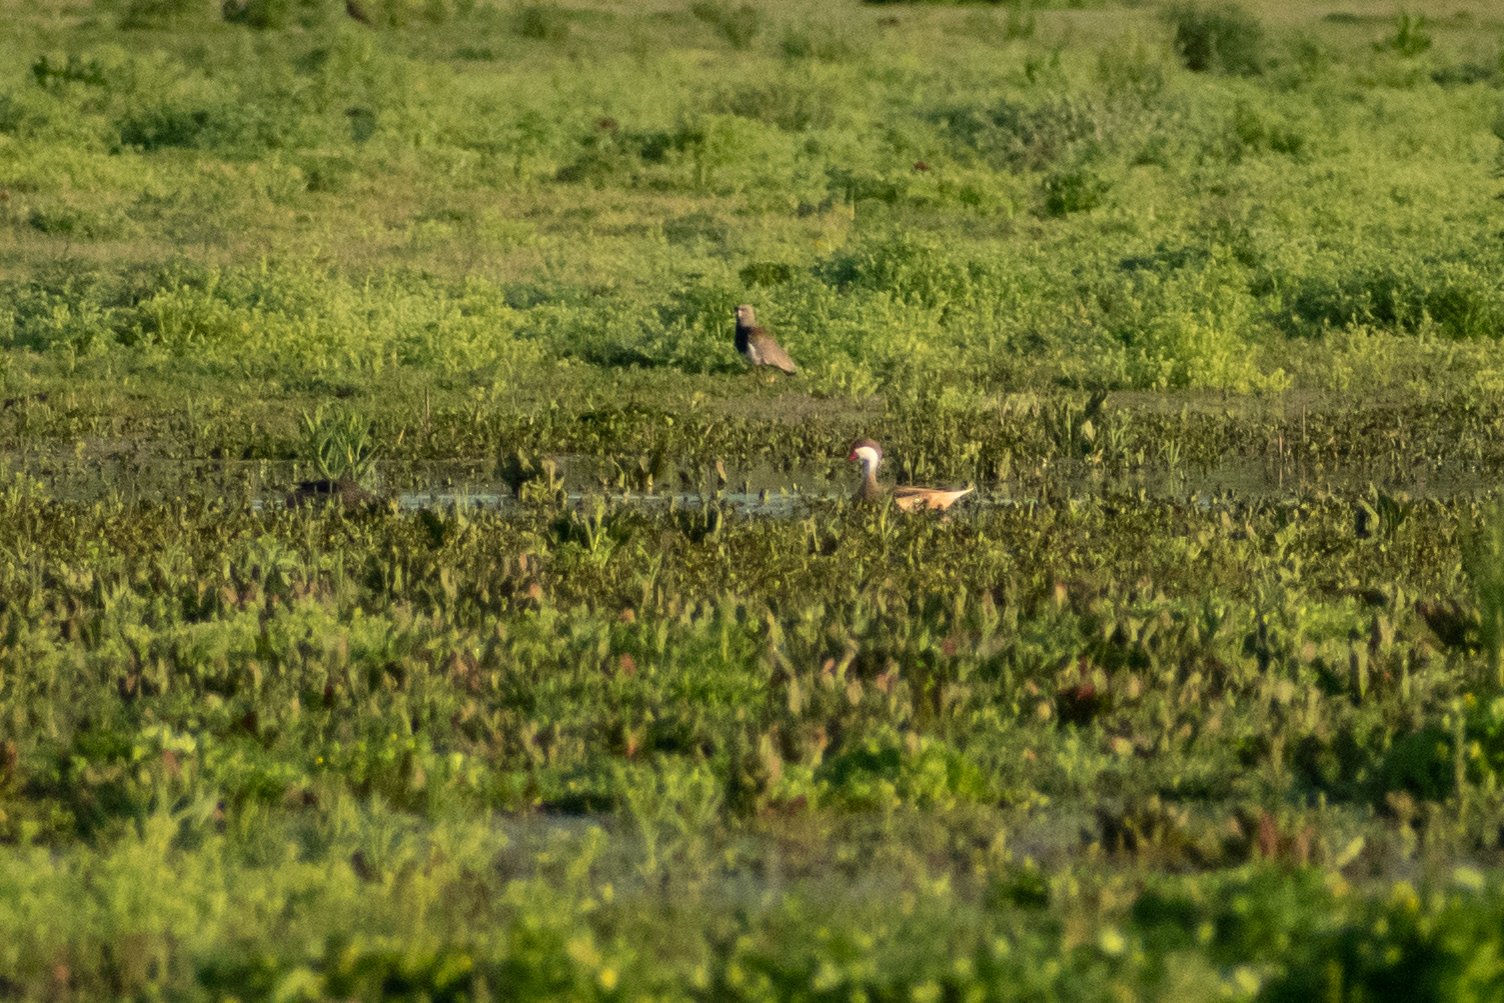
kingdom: Animalia
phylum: Chordata
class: Aves
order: Anseriformes
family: Anatidae
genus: Anas
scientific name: Anas bahamensis
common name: White-cheeked pintail
